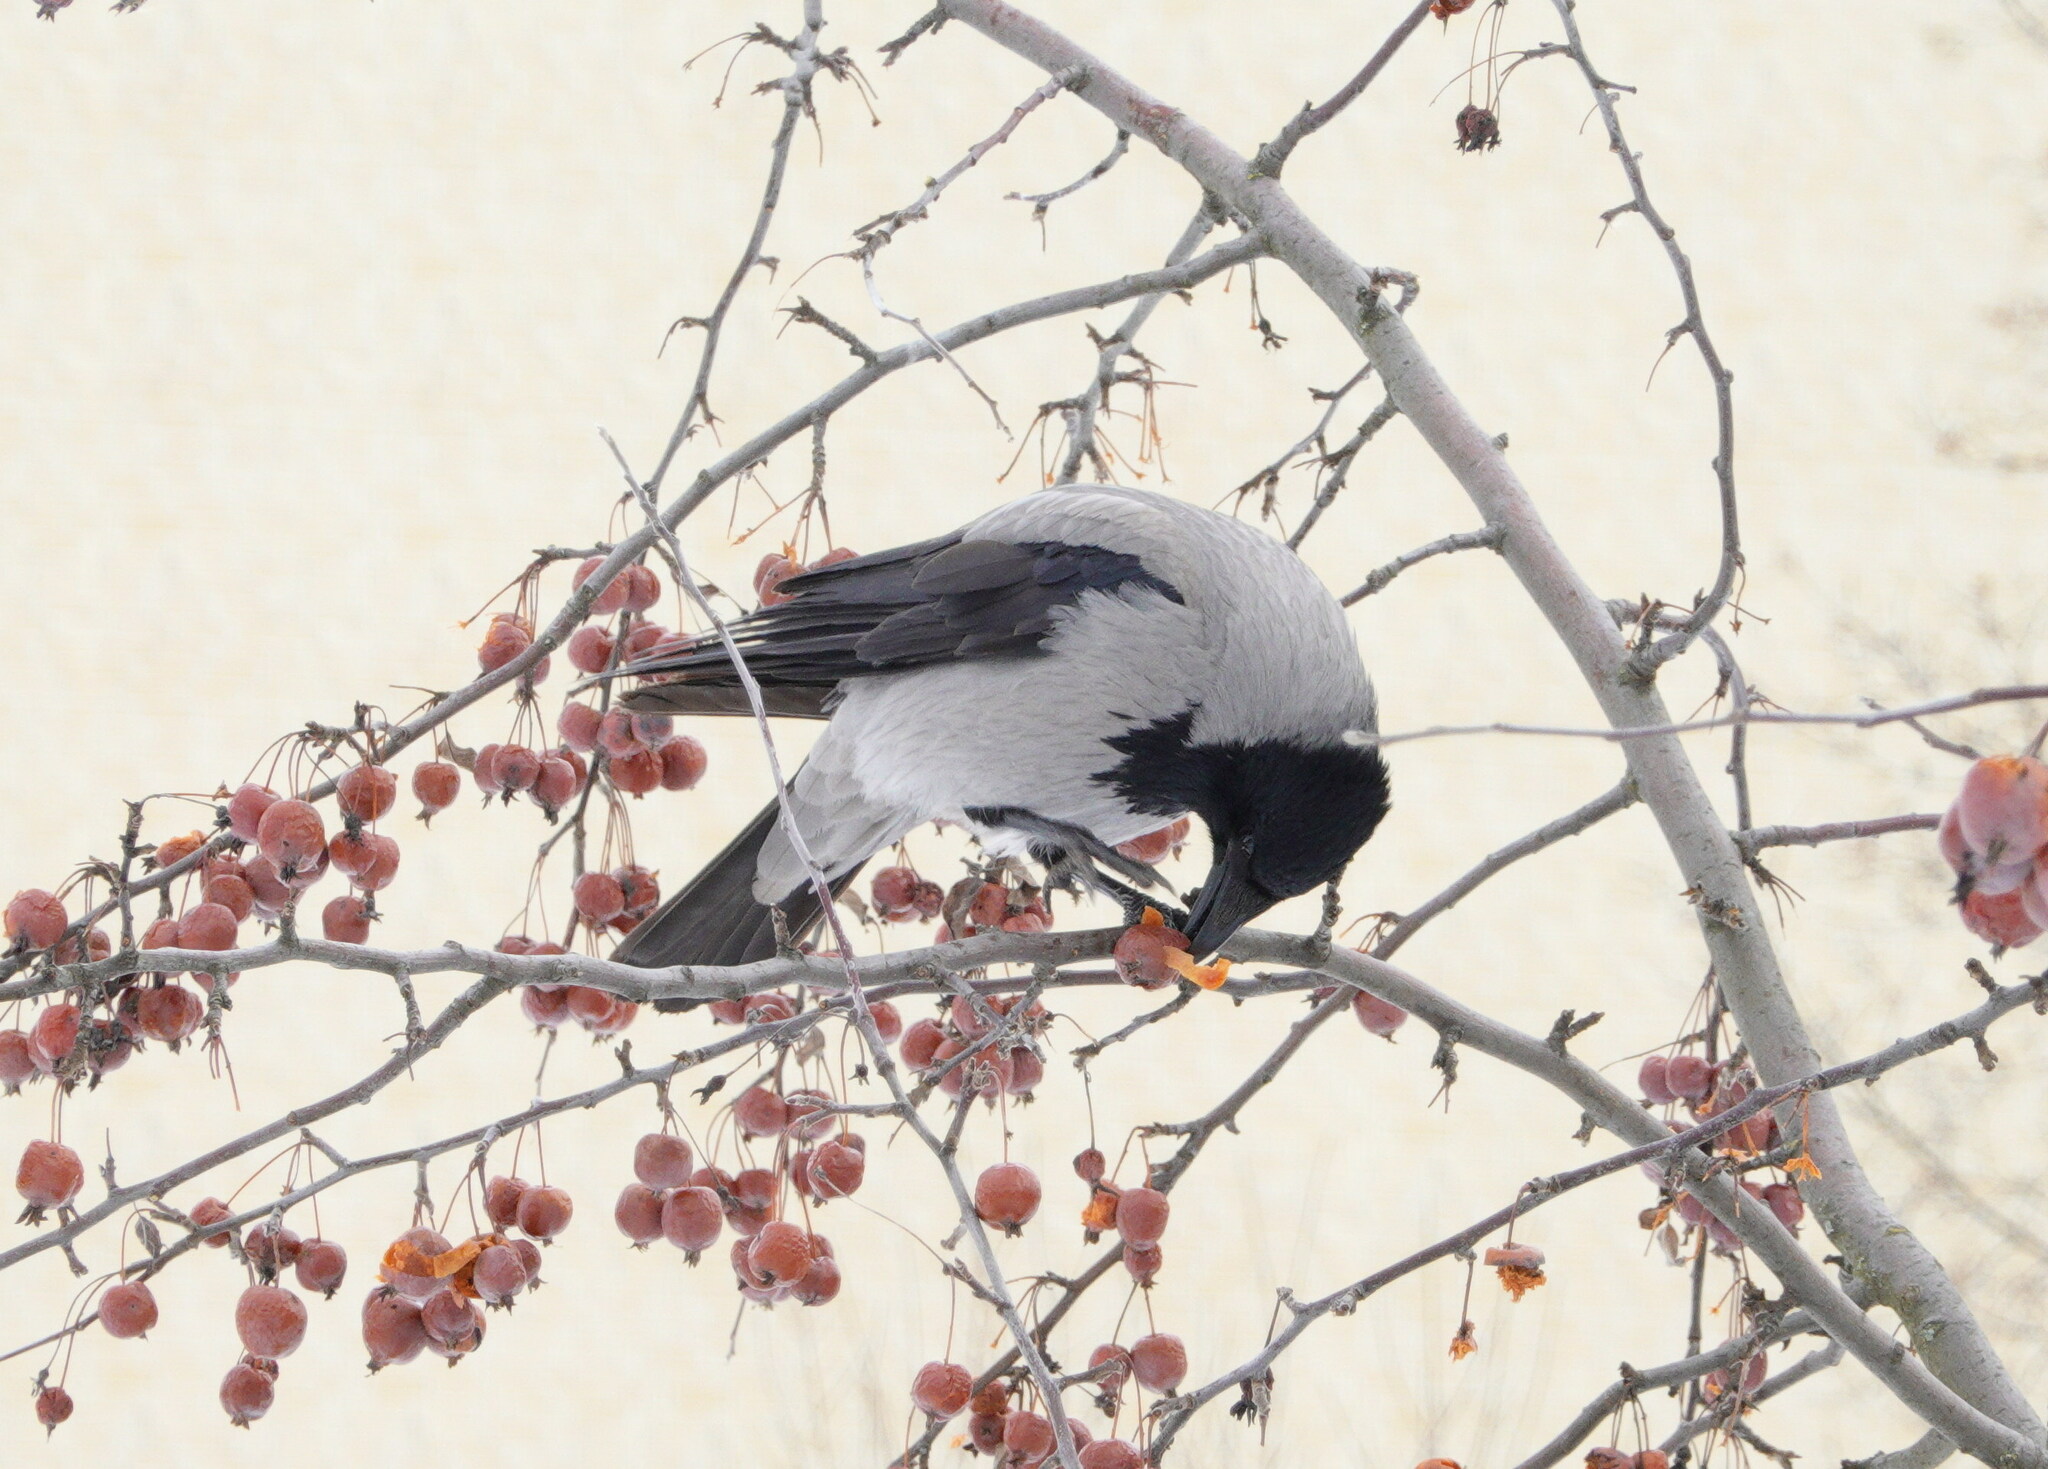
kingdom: Animalia
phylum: Chordata
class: Aves
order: Passeriformes
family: Corvidae
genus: Corvus
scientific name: Corvus cornix
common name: Hooded crow
